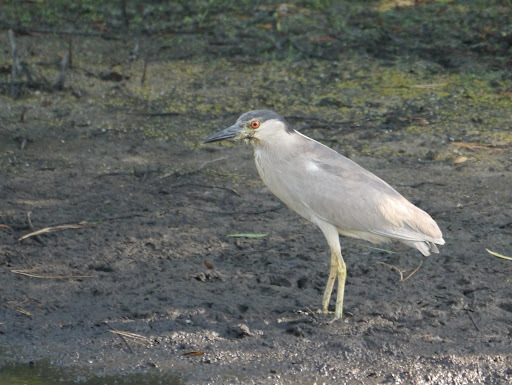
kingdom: Animalia
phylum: Chordata
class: Aves
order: Pelecaniformes
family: Ardeidae
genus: Nycticorax
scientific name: Nycticorax nycticorax
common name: Black-crowned night heron
